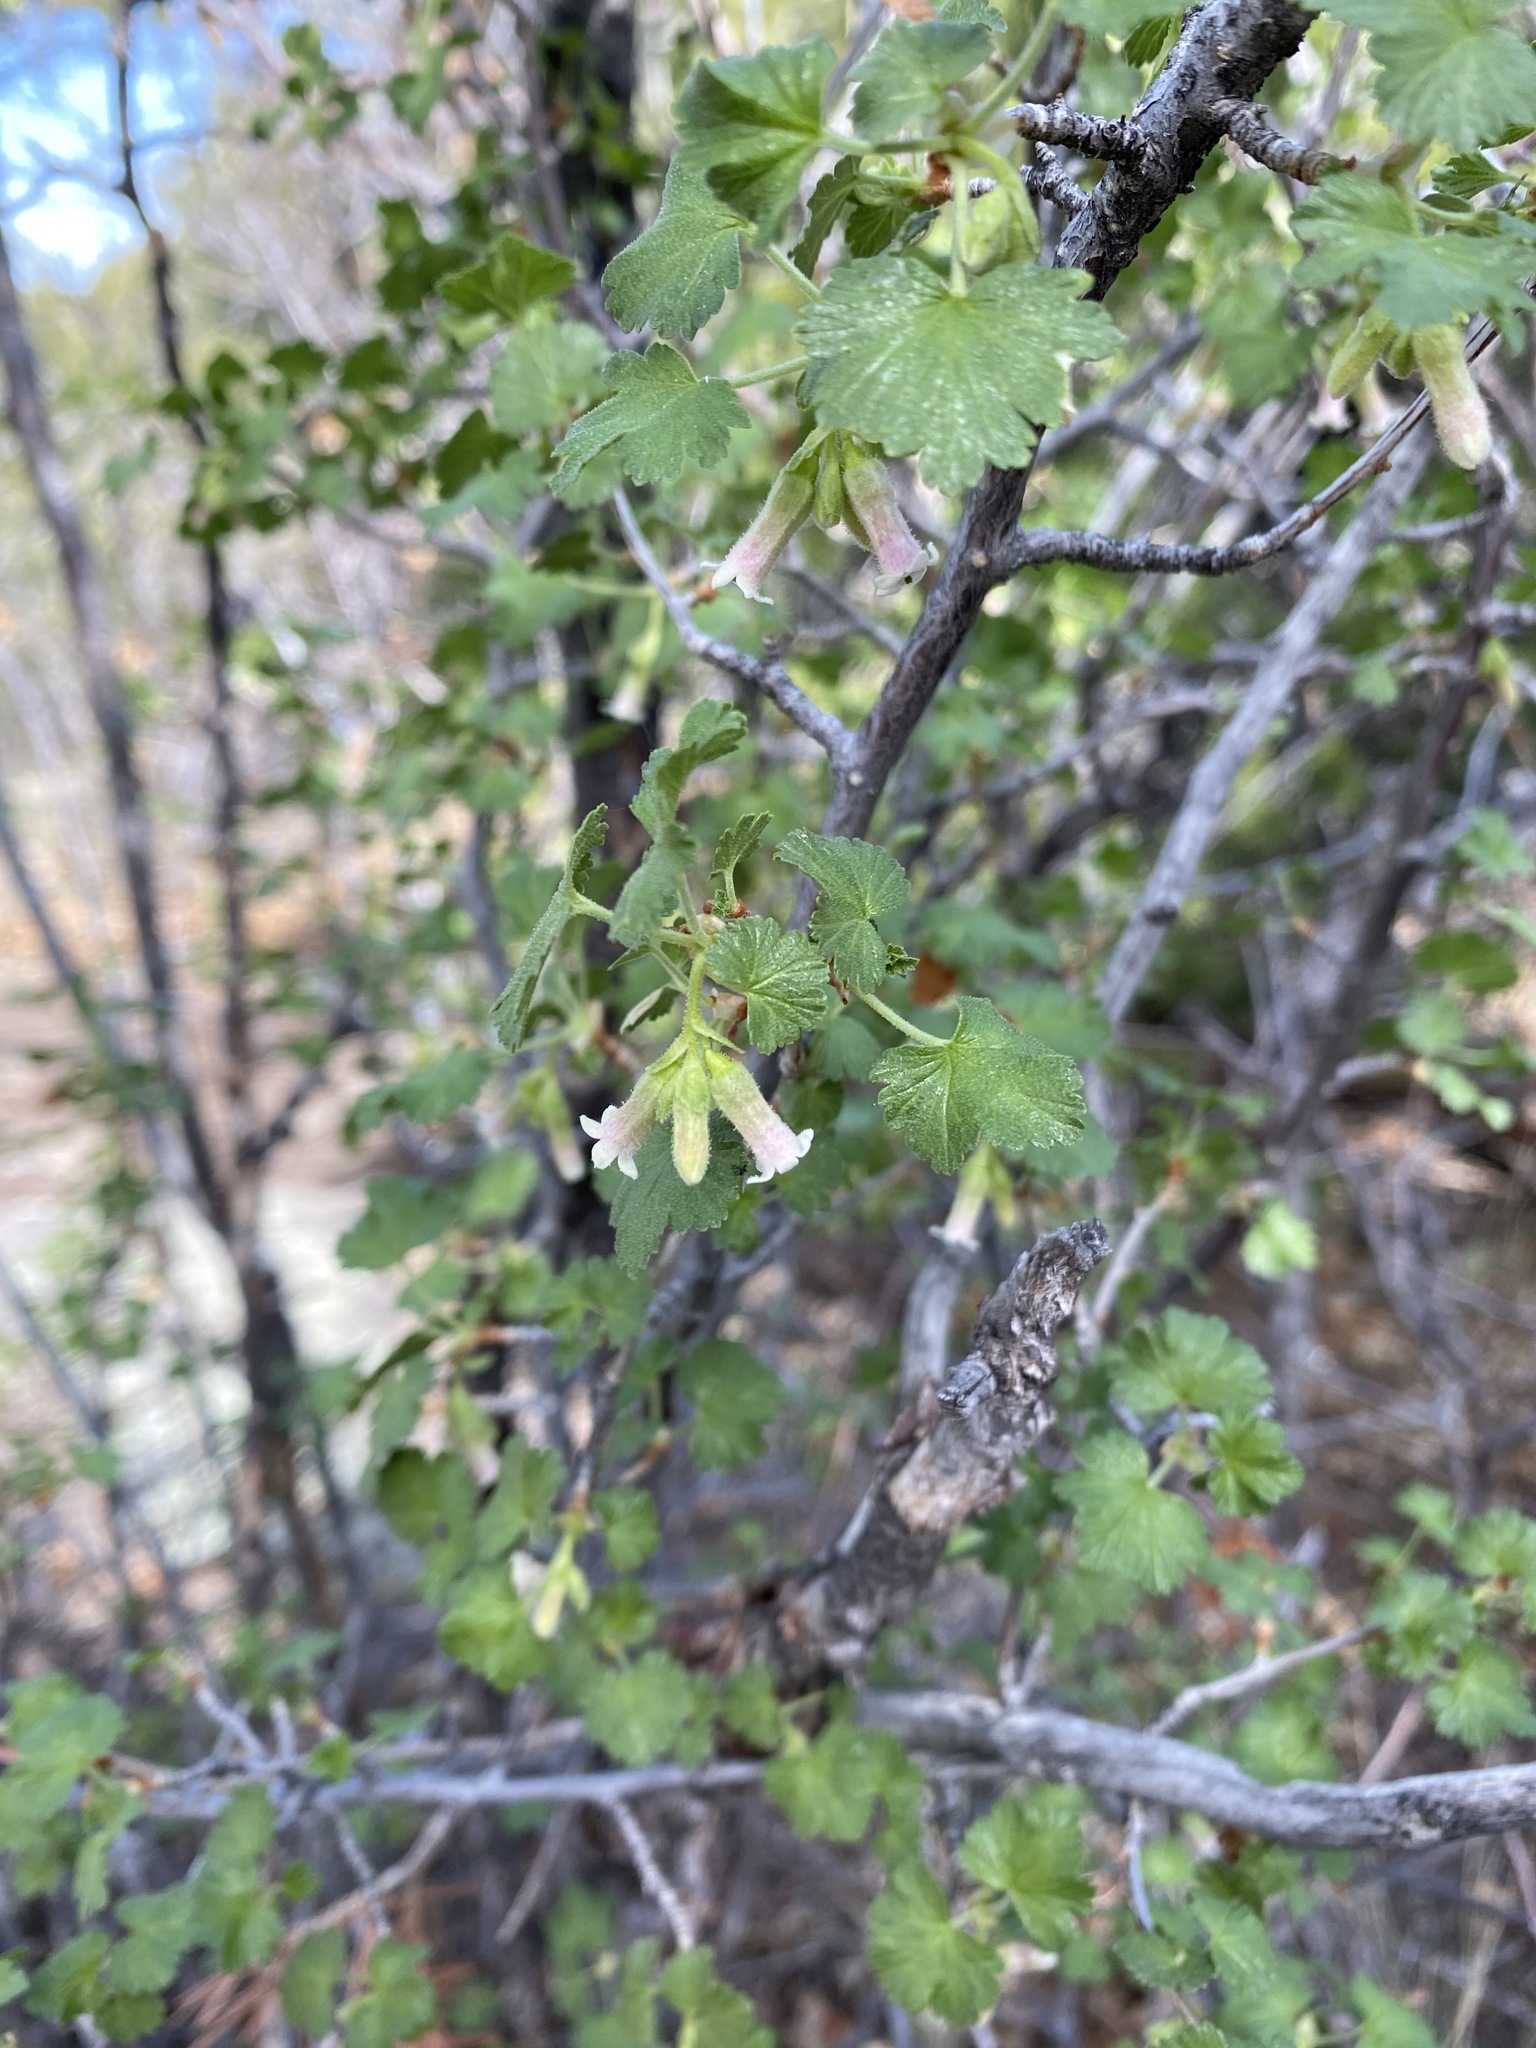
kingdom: Plantae
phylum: Tracheophyta
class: Magnoliopsida
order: Saxifragales
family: Grossulariaceae
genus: Ribes
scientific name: Ribes cereum
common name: Wax currant
